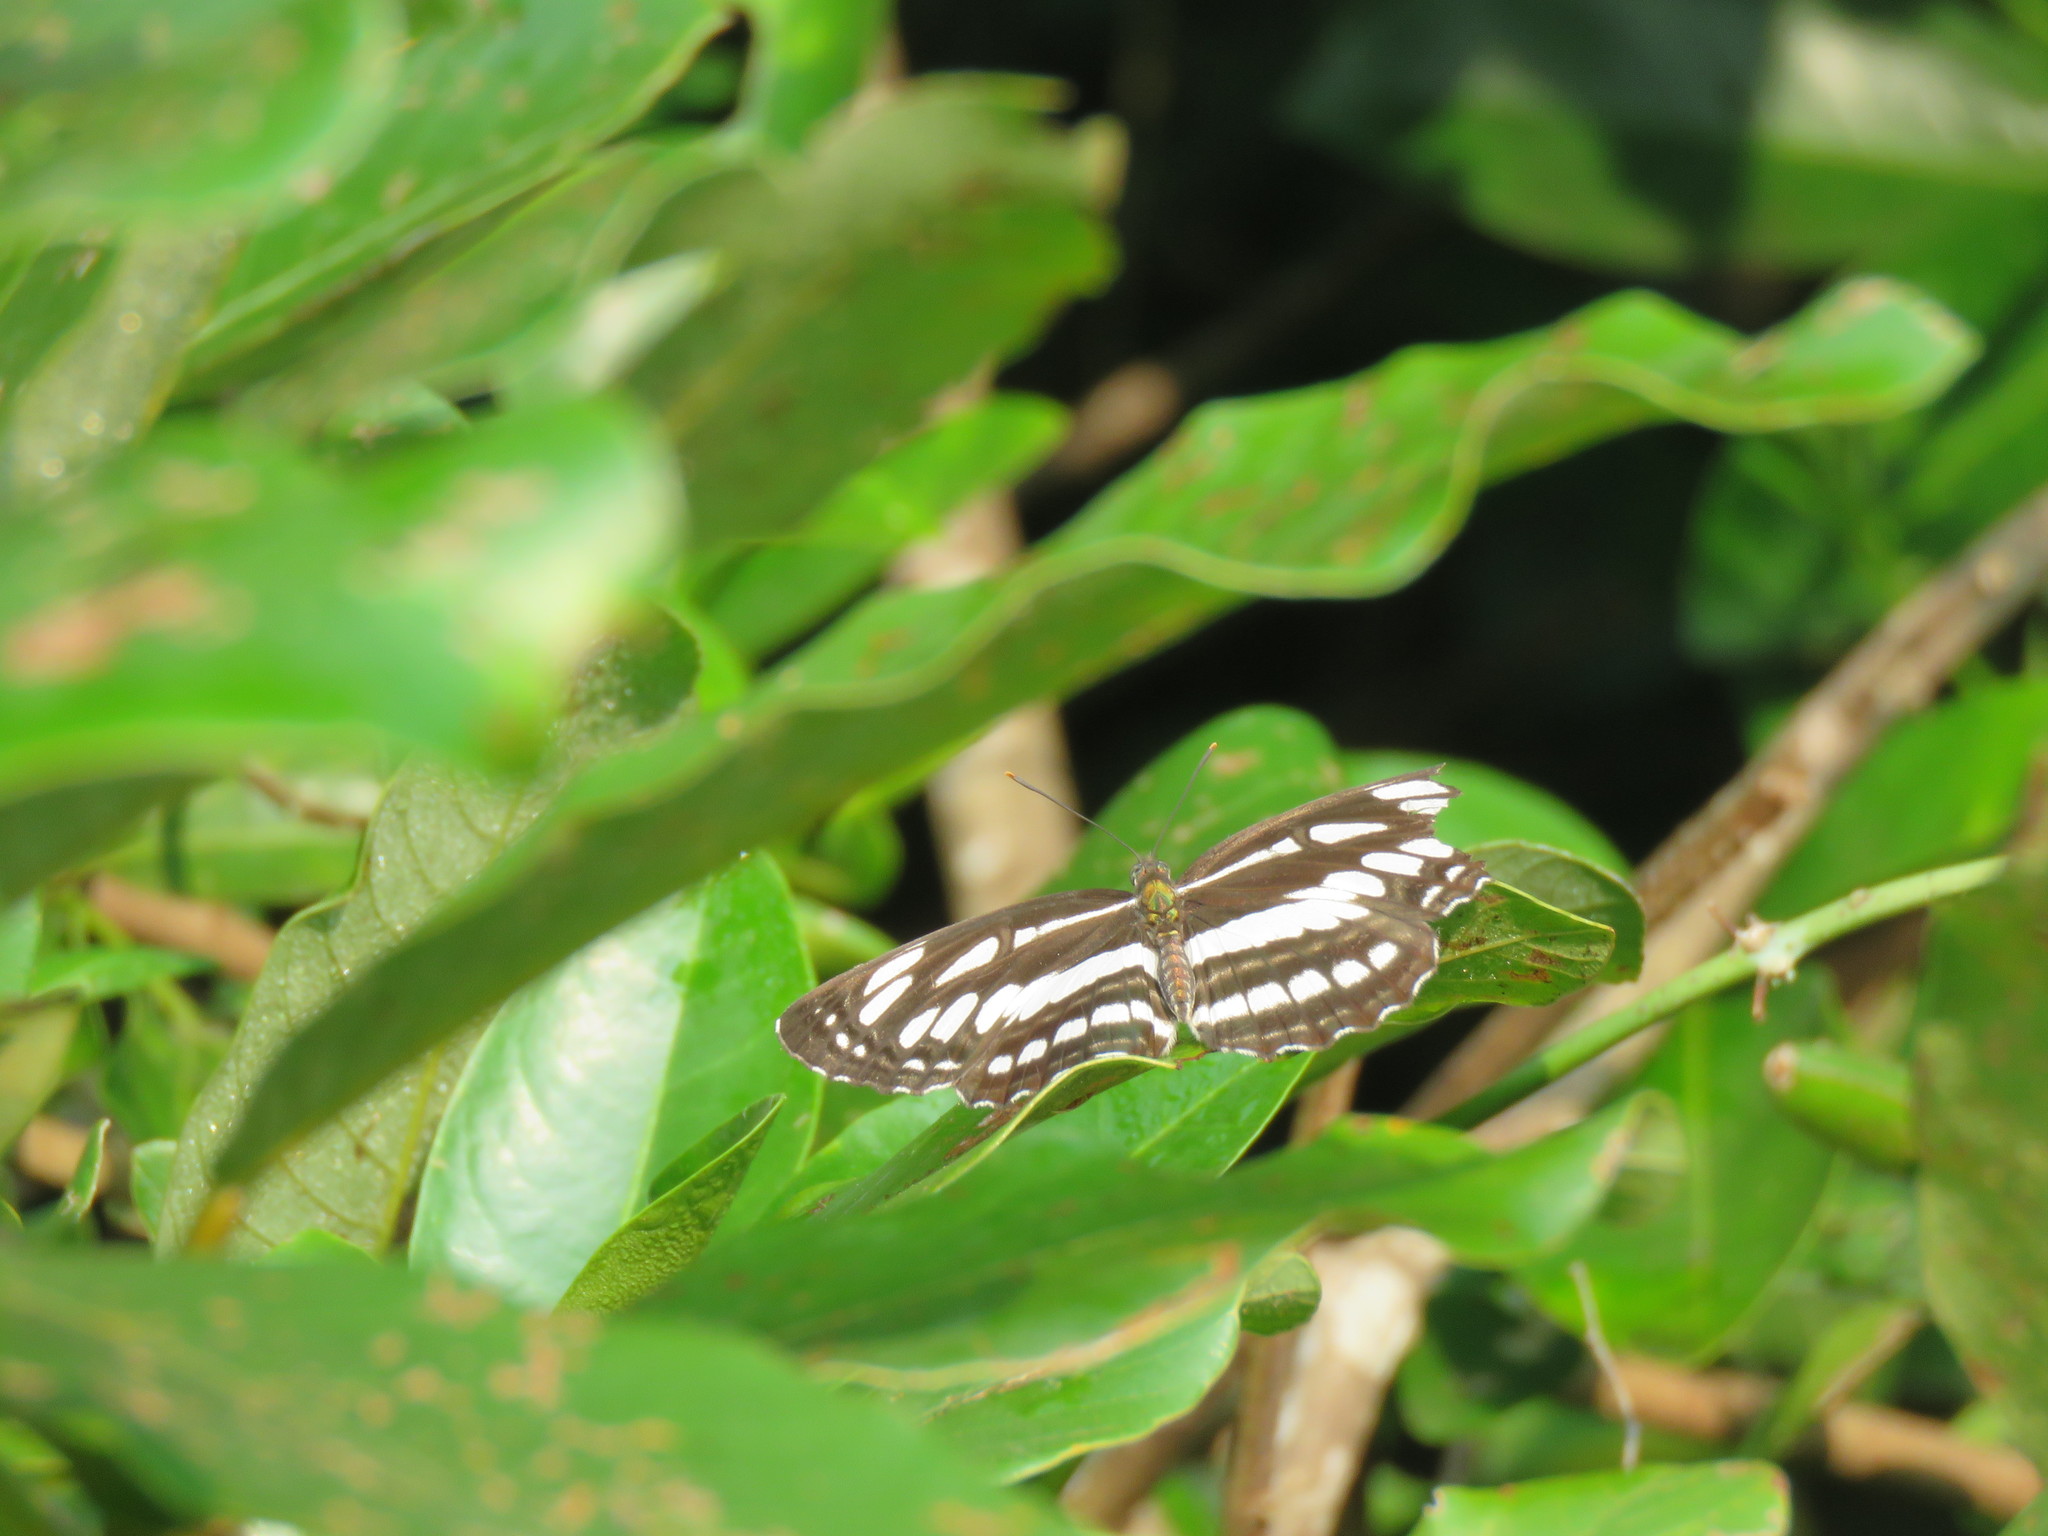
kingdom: Animalia
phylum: Arthropoda
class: Insecta
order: Lepidoptera
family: Nymphalidae
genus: Neptis
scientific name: Neptis hylas
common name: Common sailer
